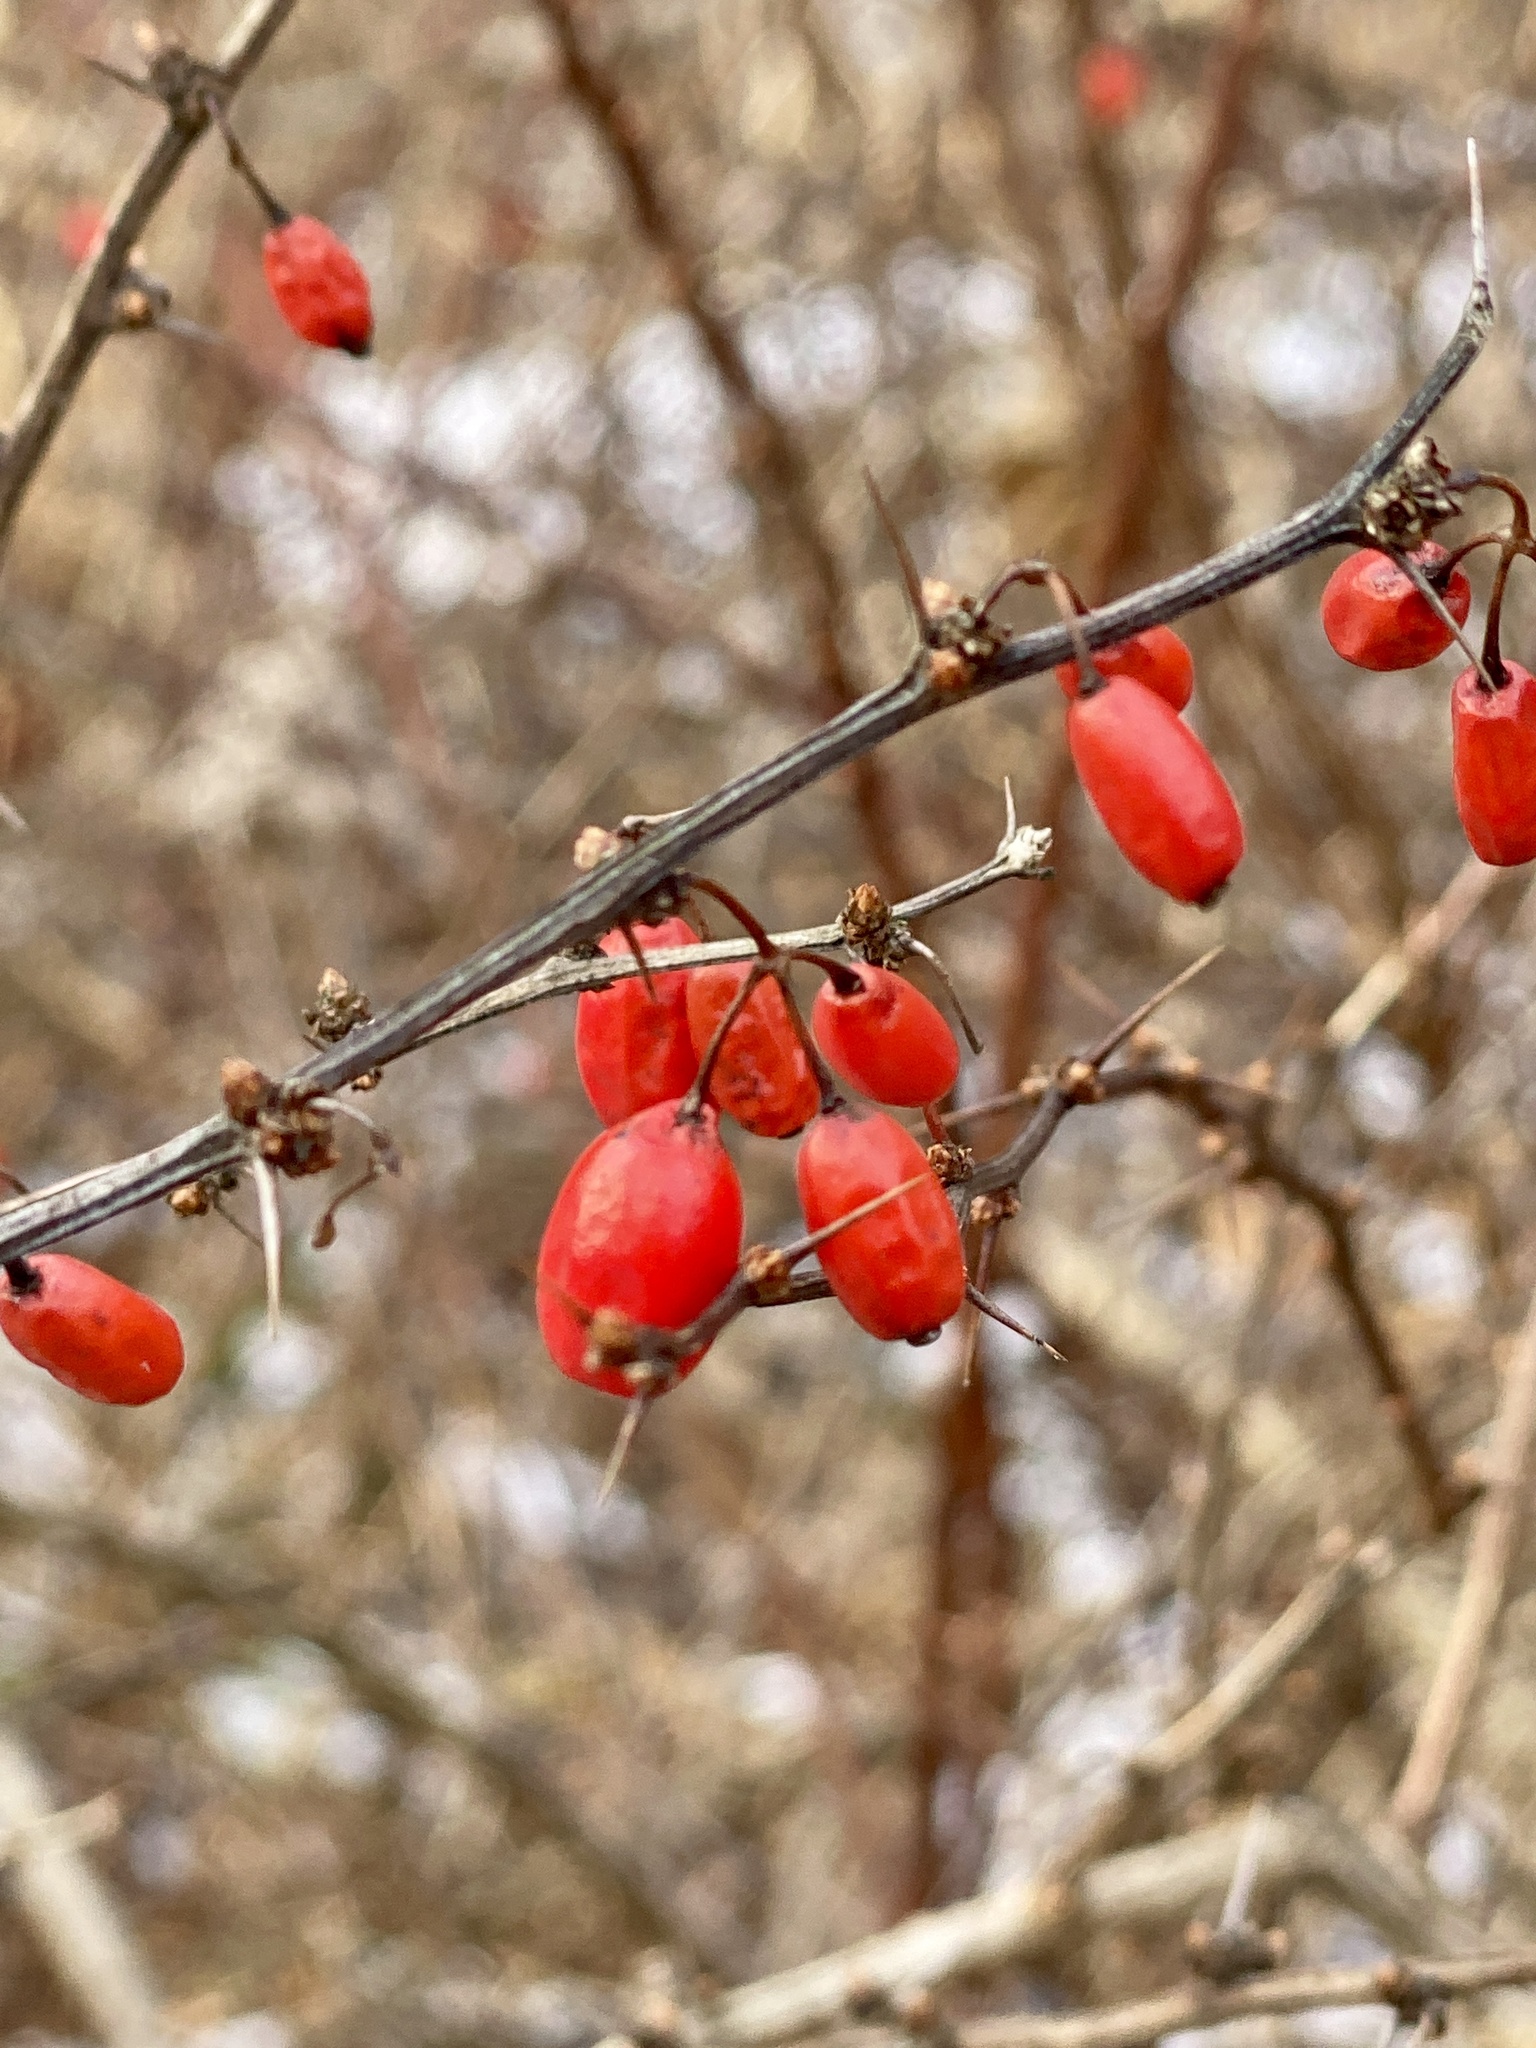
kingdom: Plantae
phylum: Tracheophyta
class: Magnoliopsida
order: Ranunculales
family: Berberidaceae
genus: Berberis
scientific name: Berberis thunbergii
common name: Japanese barberry
